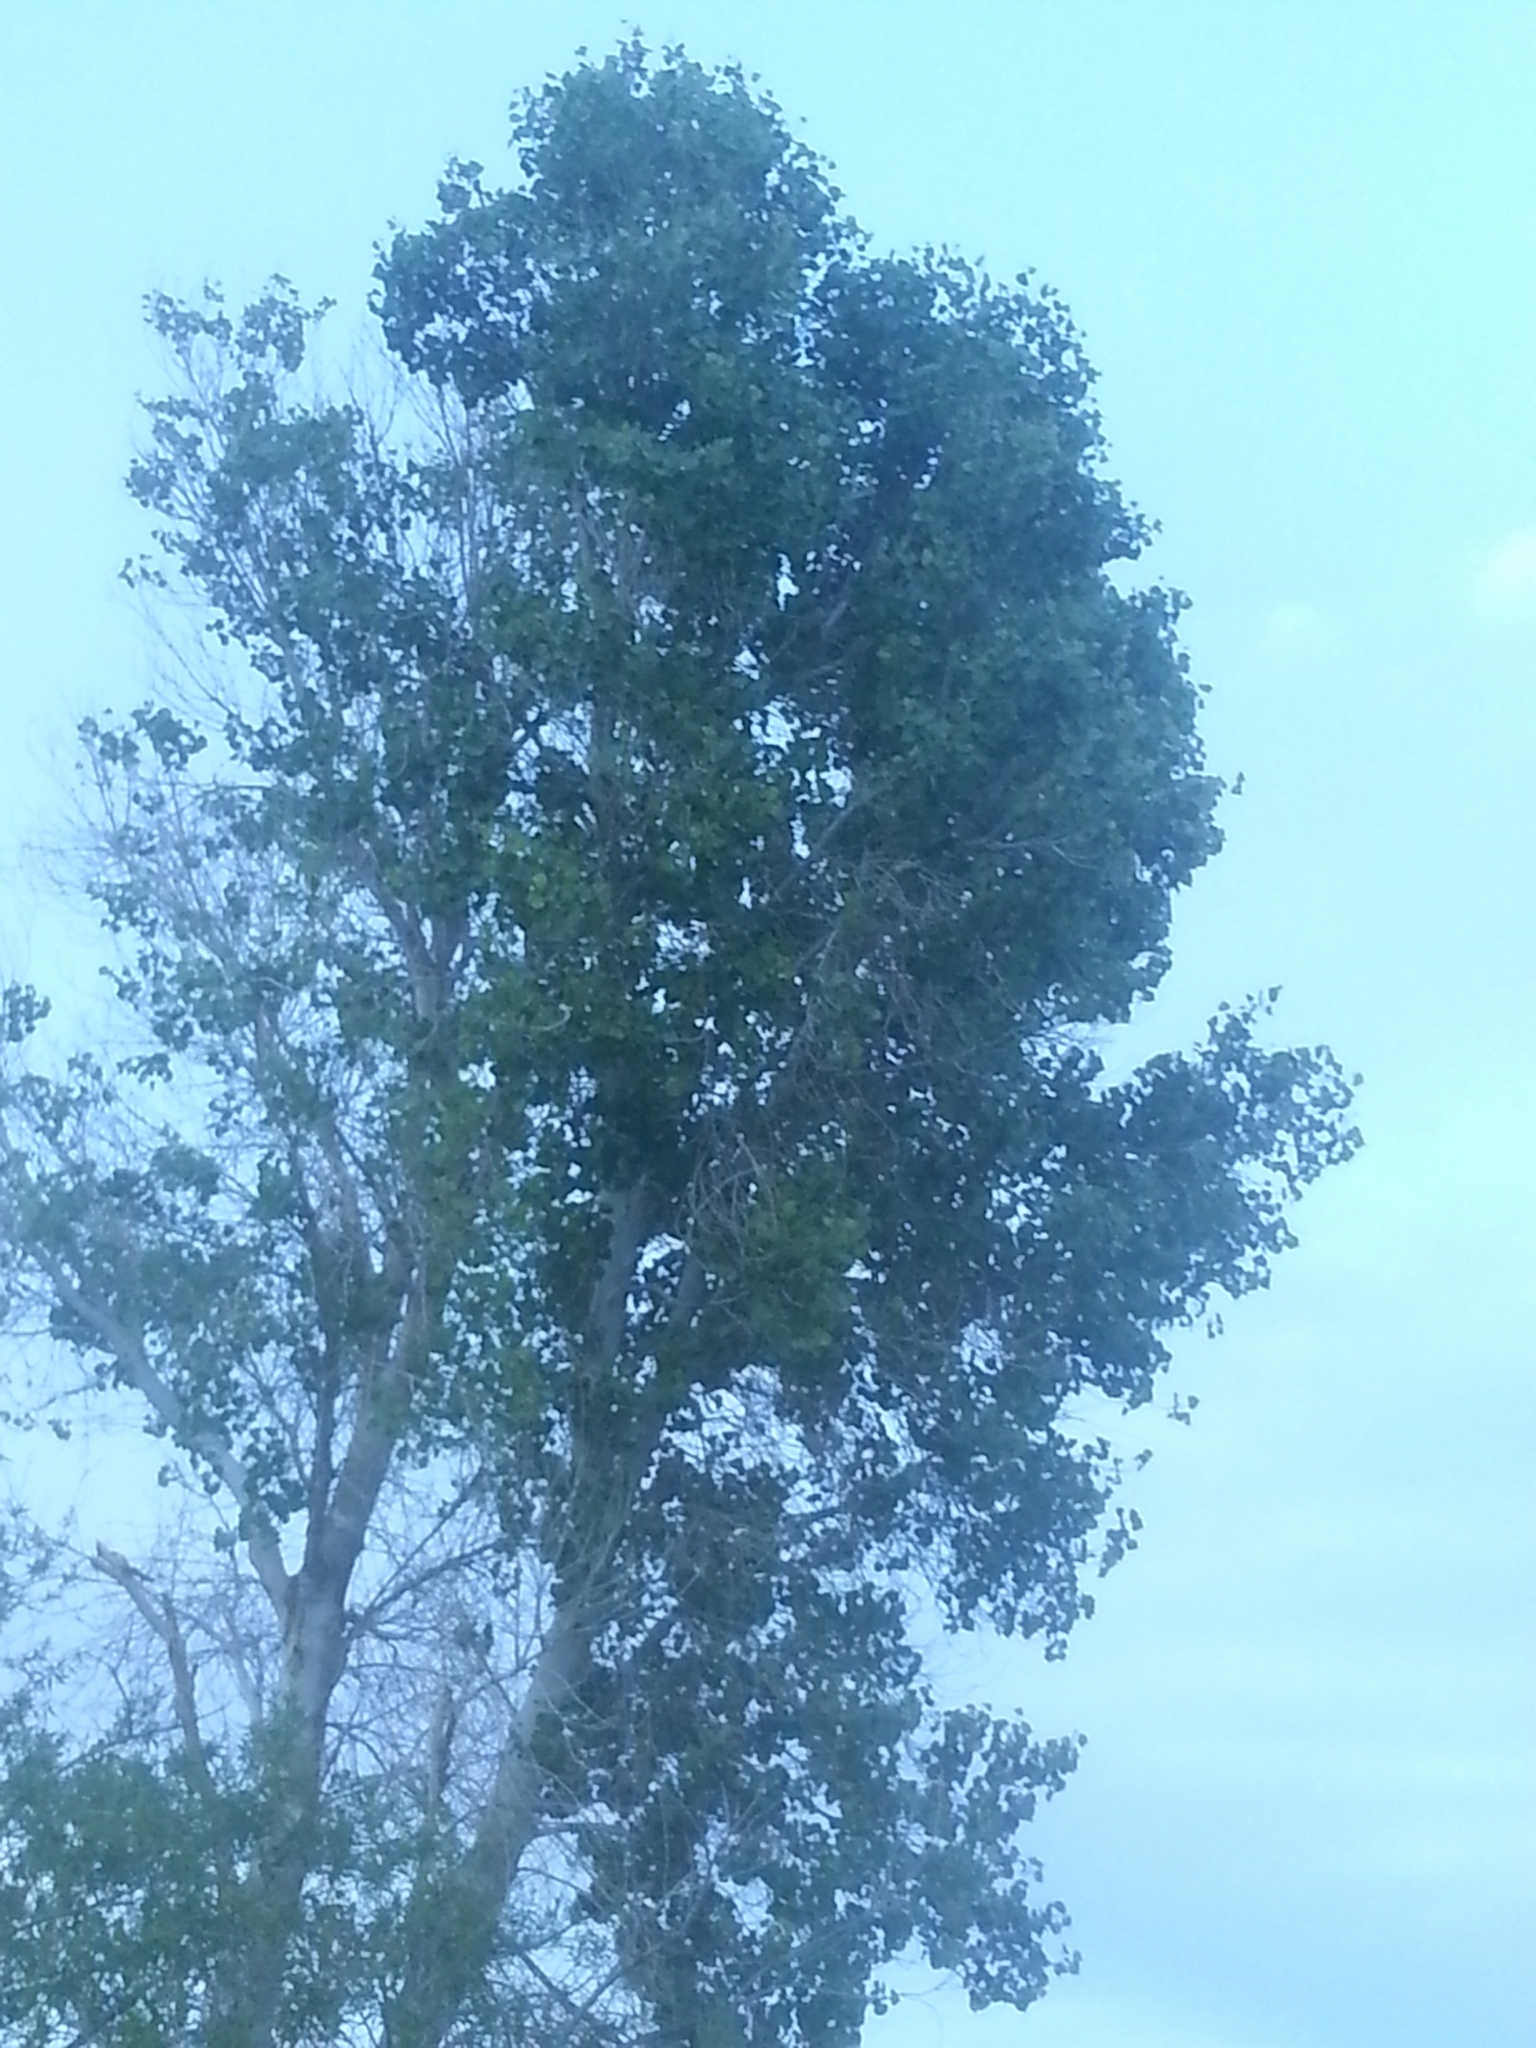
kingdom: Plantae
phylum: Tracheophyta
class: Magnoliopsida
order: Malpighiales
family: Salicaceae
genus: Populus
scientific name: Populus fremontii
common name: Fremont's cottonwood
